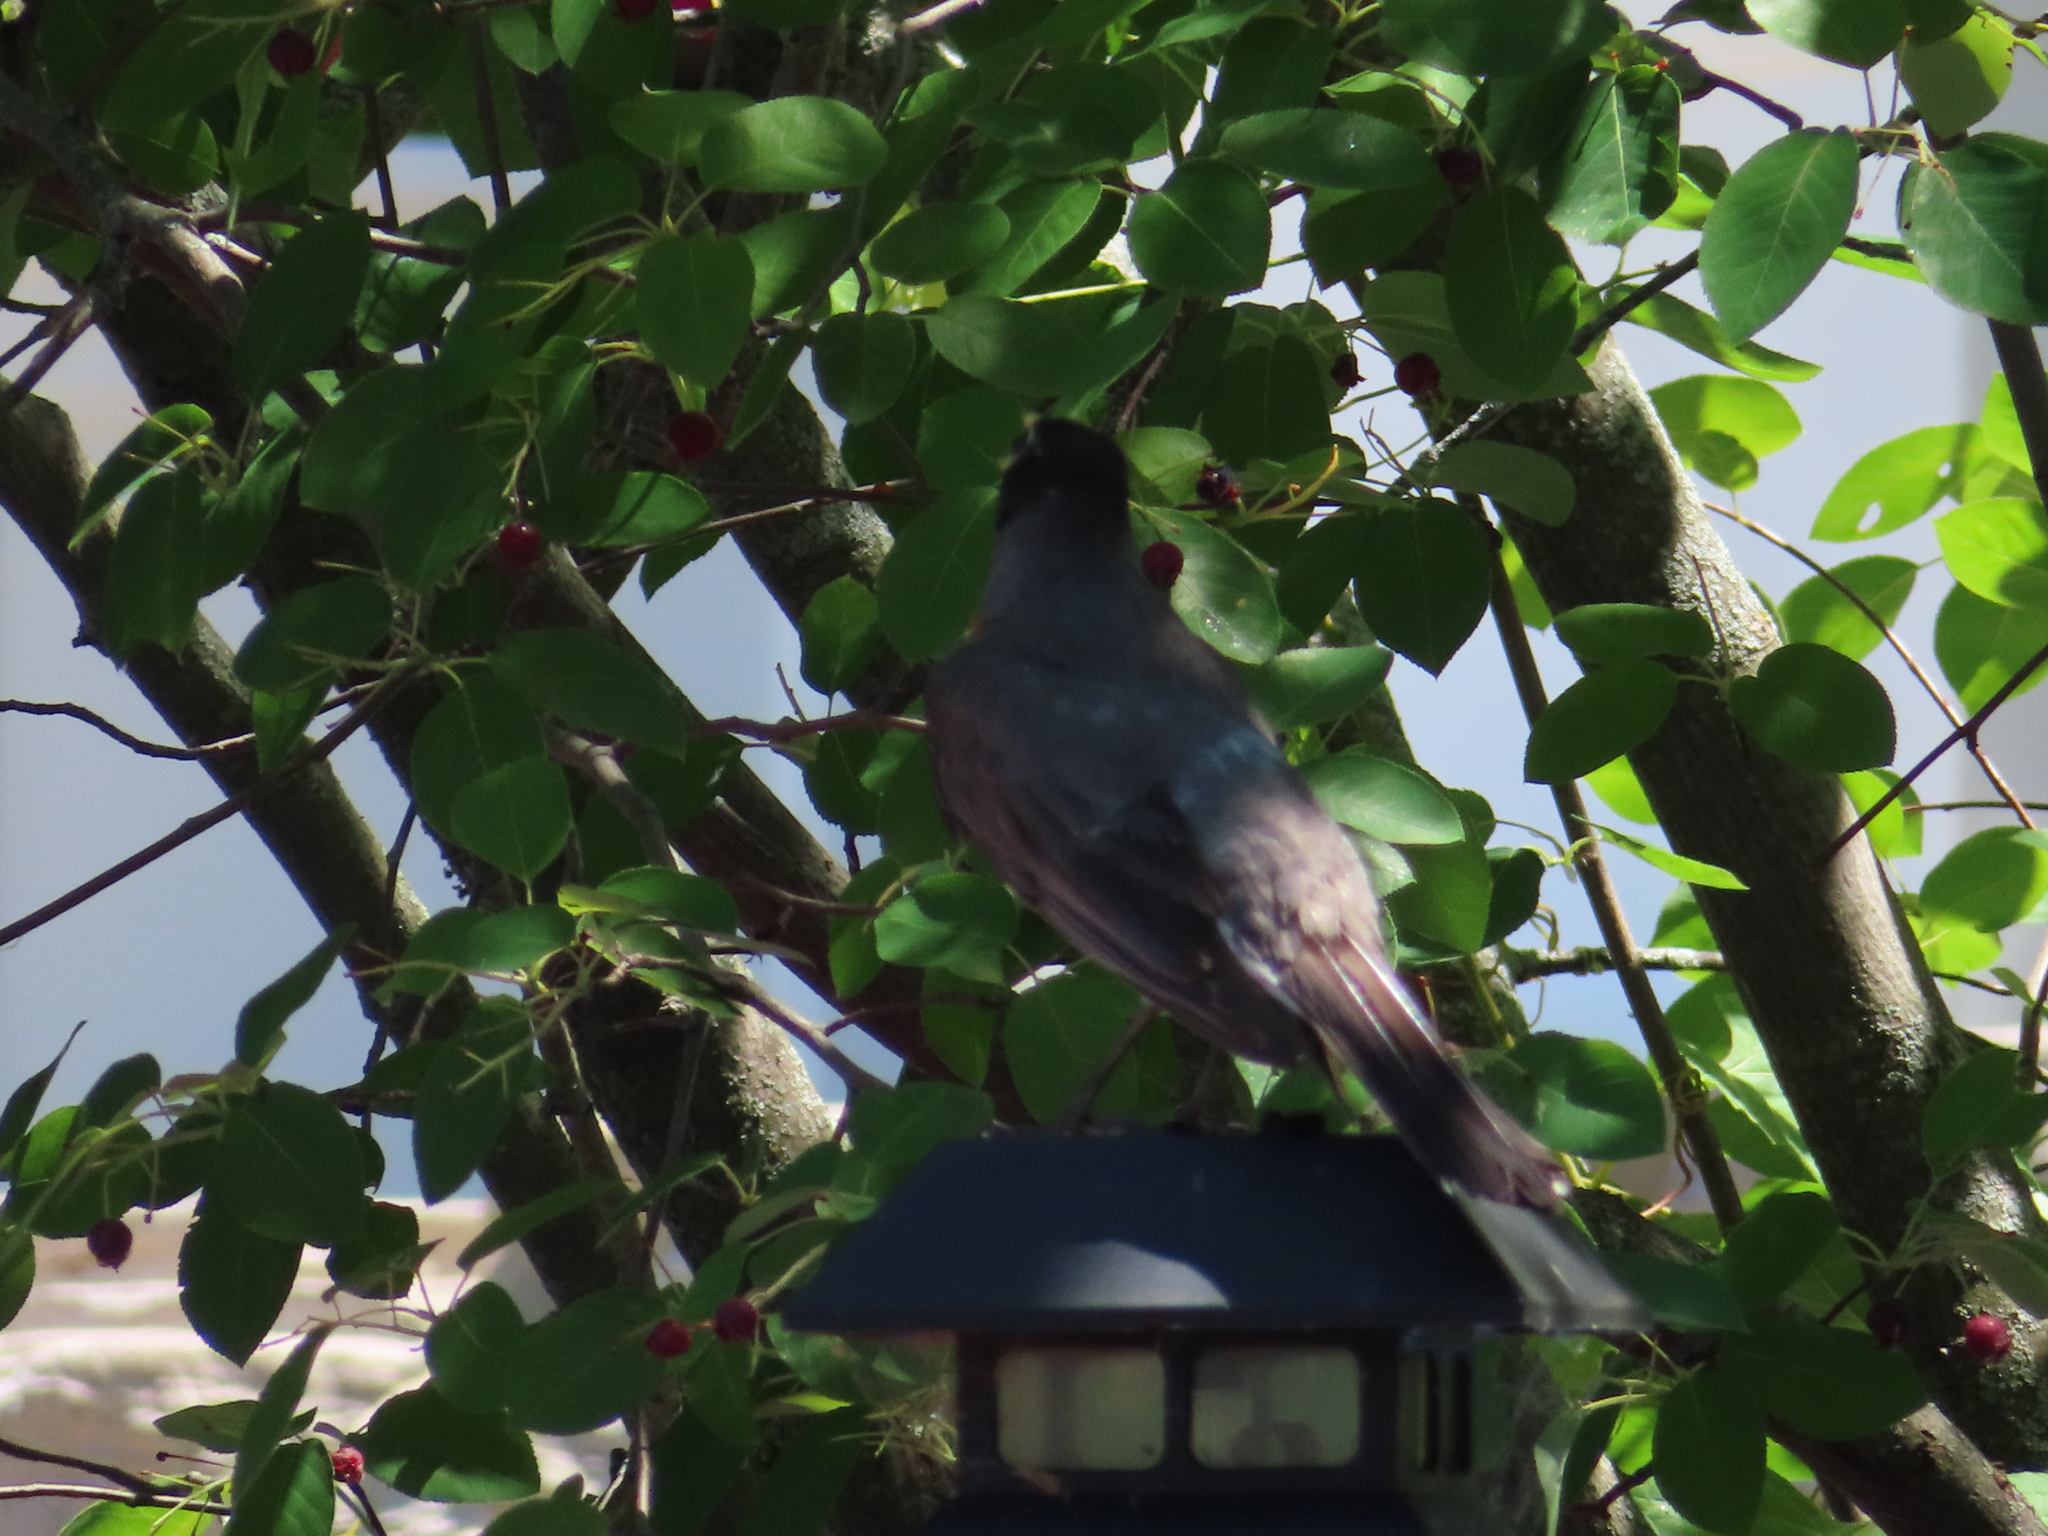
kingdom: Animalia
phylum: Chordata
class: Aves
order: Passeriformes
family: Turdidae
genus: Turdus
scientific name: Turdus migratorius
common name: American robin
